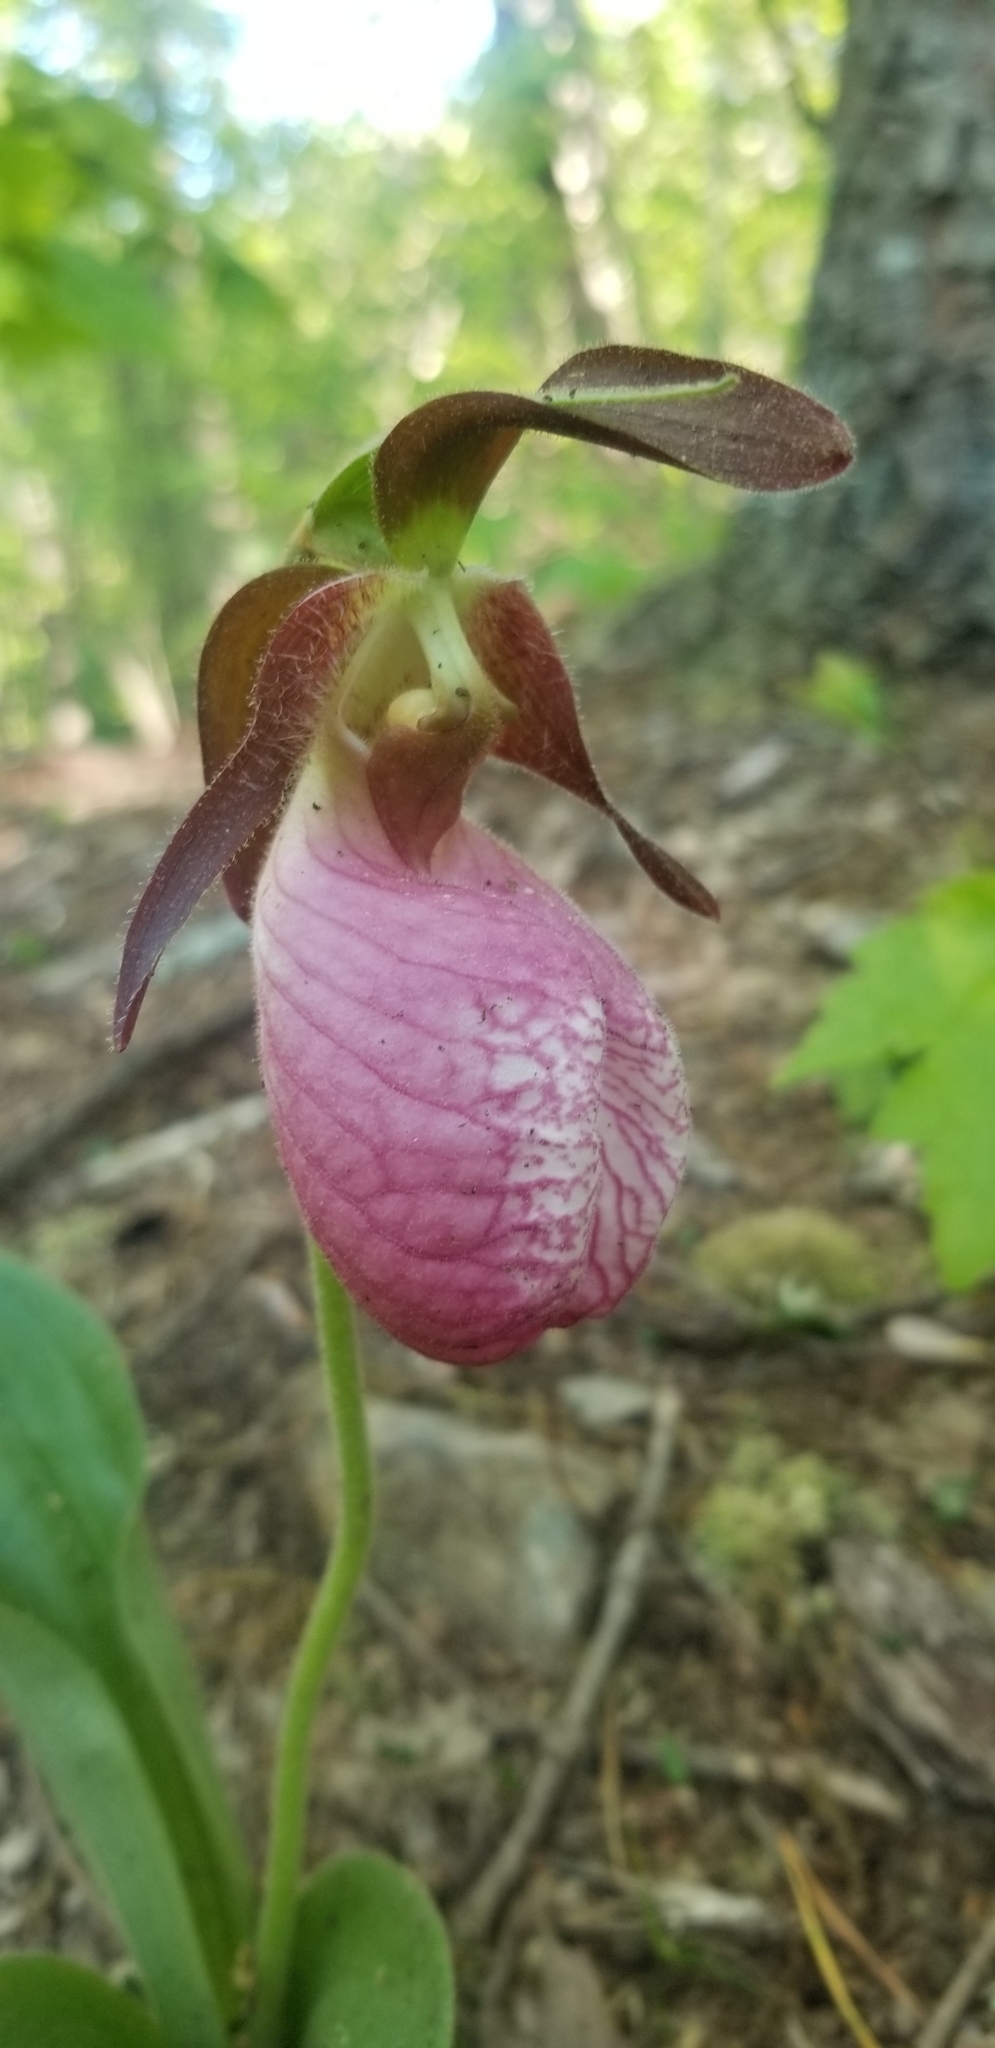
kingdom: Plantae
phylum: Tracheophyta
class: Liliopsida
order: Asparagales
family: Orchidaceae
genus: Cypripedium
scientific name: Cypripedium acaule
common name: Pink lady's-slipper
